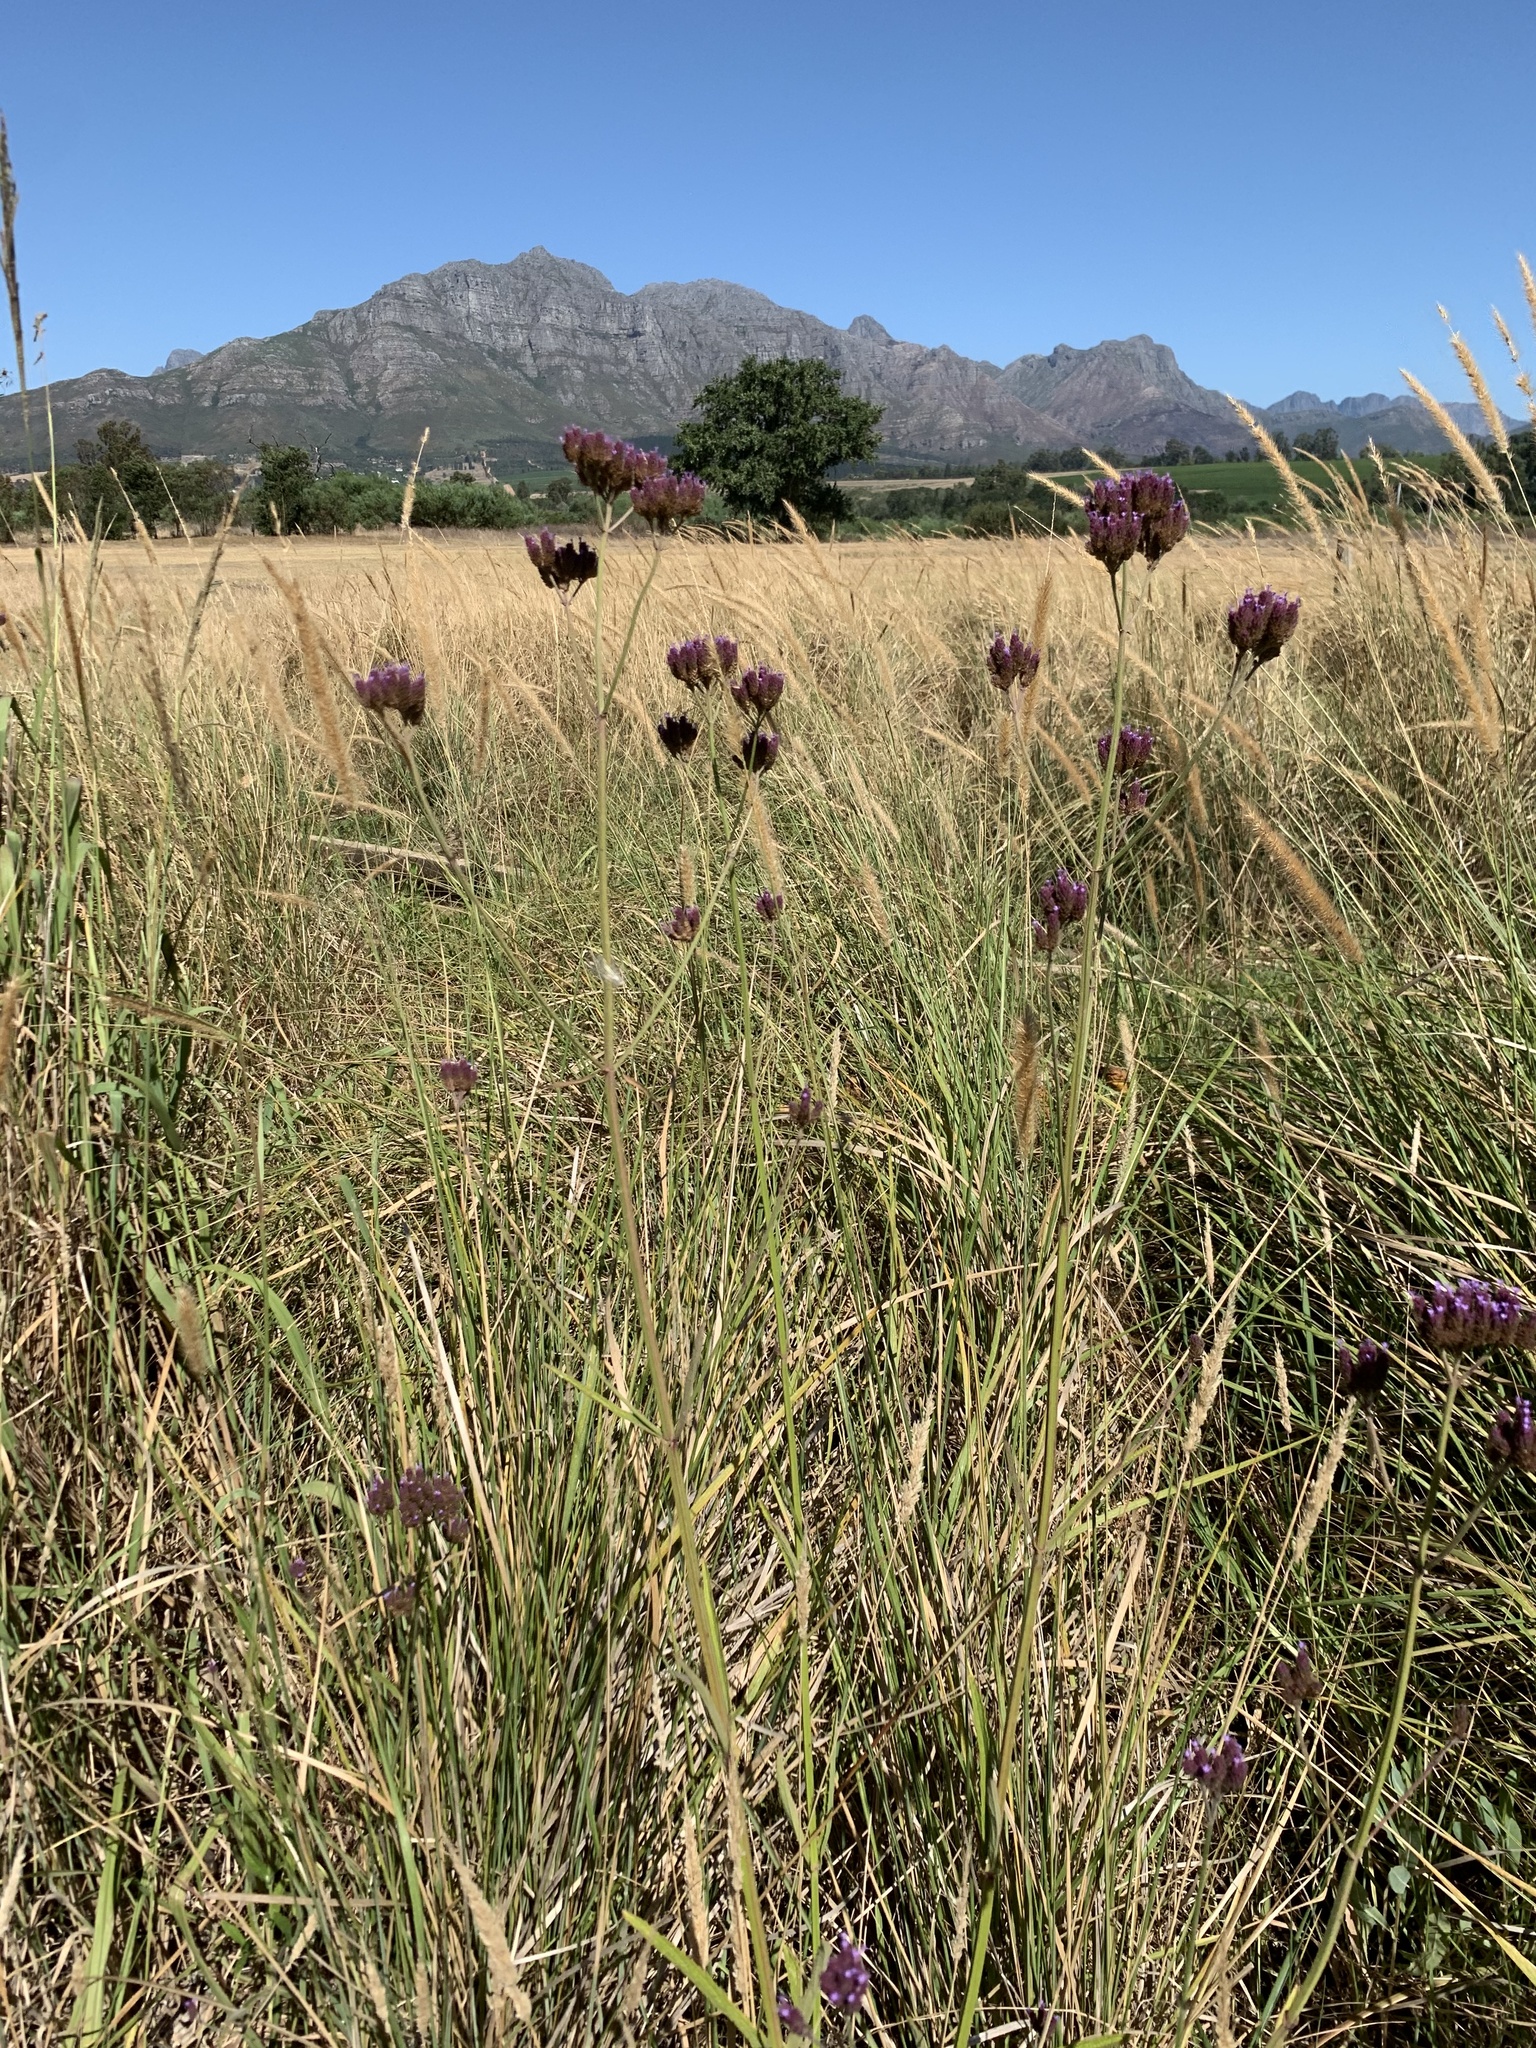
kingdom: Plantae
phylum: Tracheophyta
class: Magnoliopsida
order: Lamiales
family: Verbenaceae
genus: Verbena
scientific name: Verbena bonariensis
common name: Purpletop vervain
